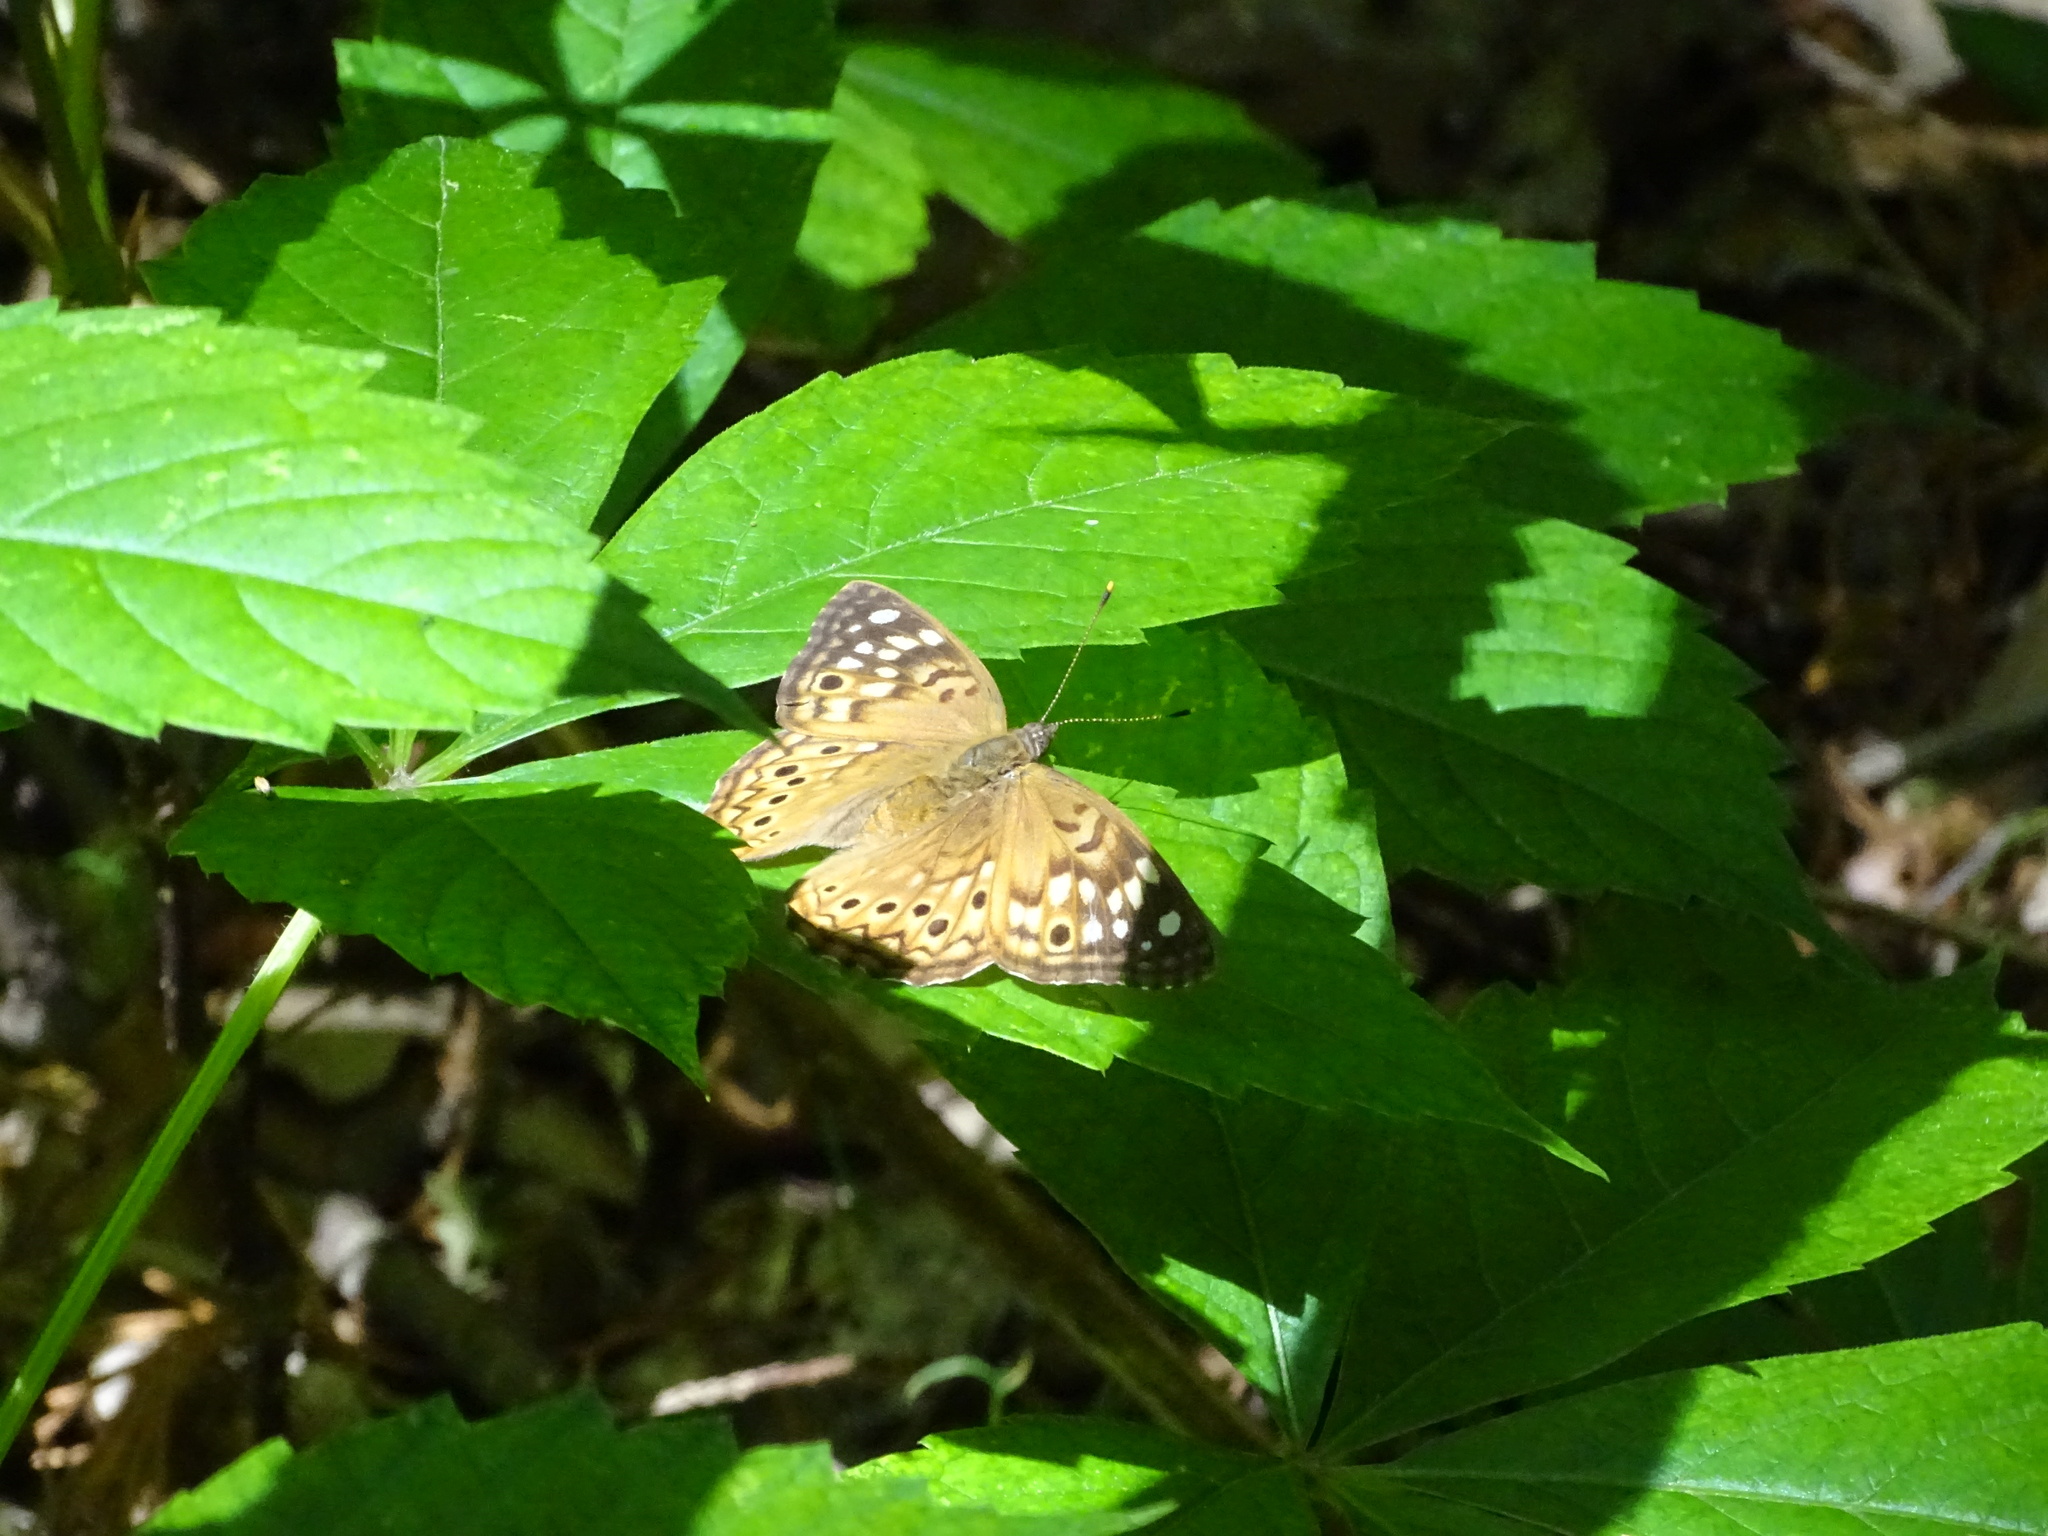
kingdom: Animalia
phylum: Arthropoda
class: Insecta
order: Lepidoptera
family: Nymphalidae
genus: Asterocampa
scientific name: Asterocampa celtis
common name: Hackberry emperor
